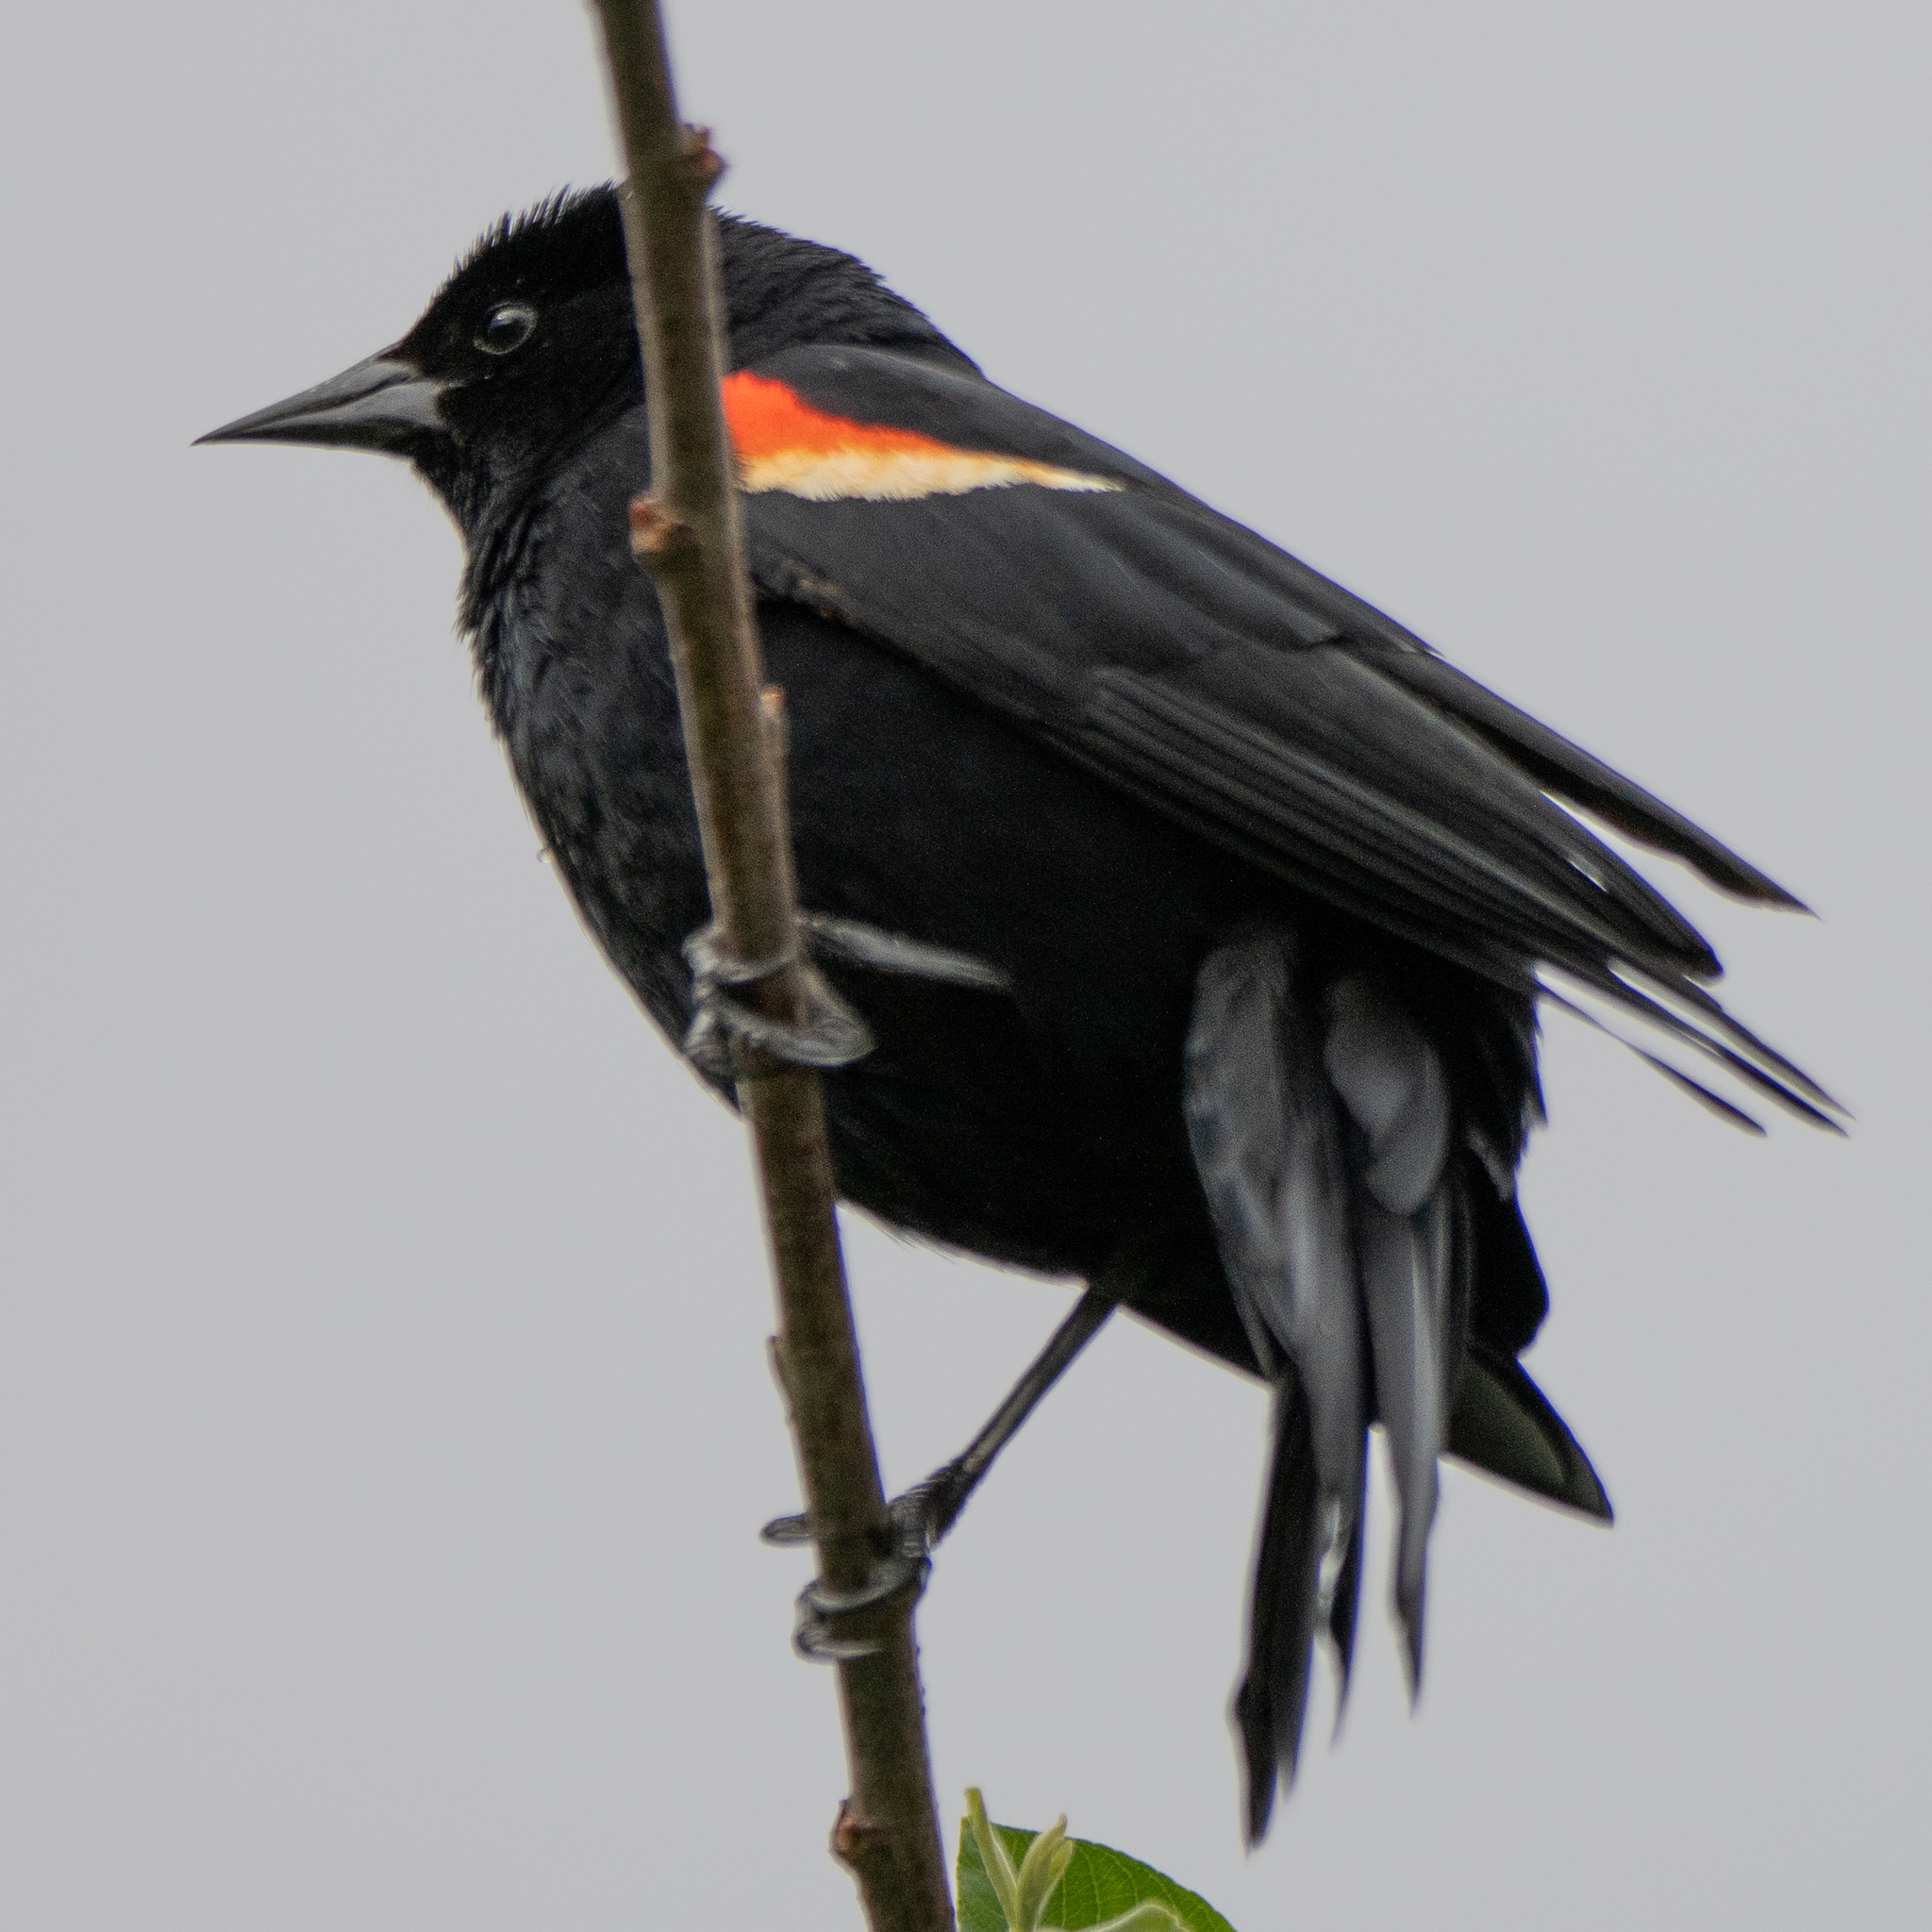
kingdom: Animalia
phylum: Chordata
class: Aves
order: Passeriformes
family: Icteridae
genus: Agelaius
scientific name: Agelaius phoeniceus
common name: Red-winged blackbird
